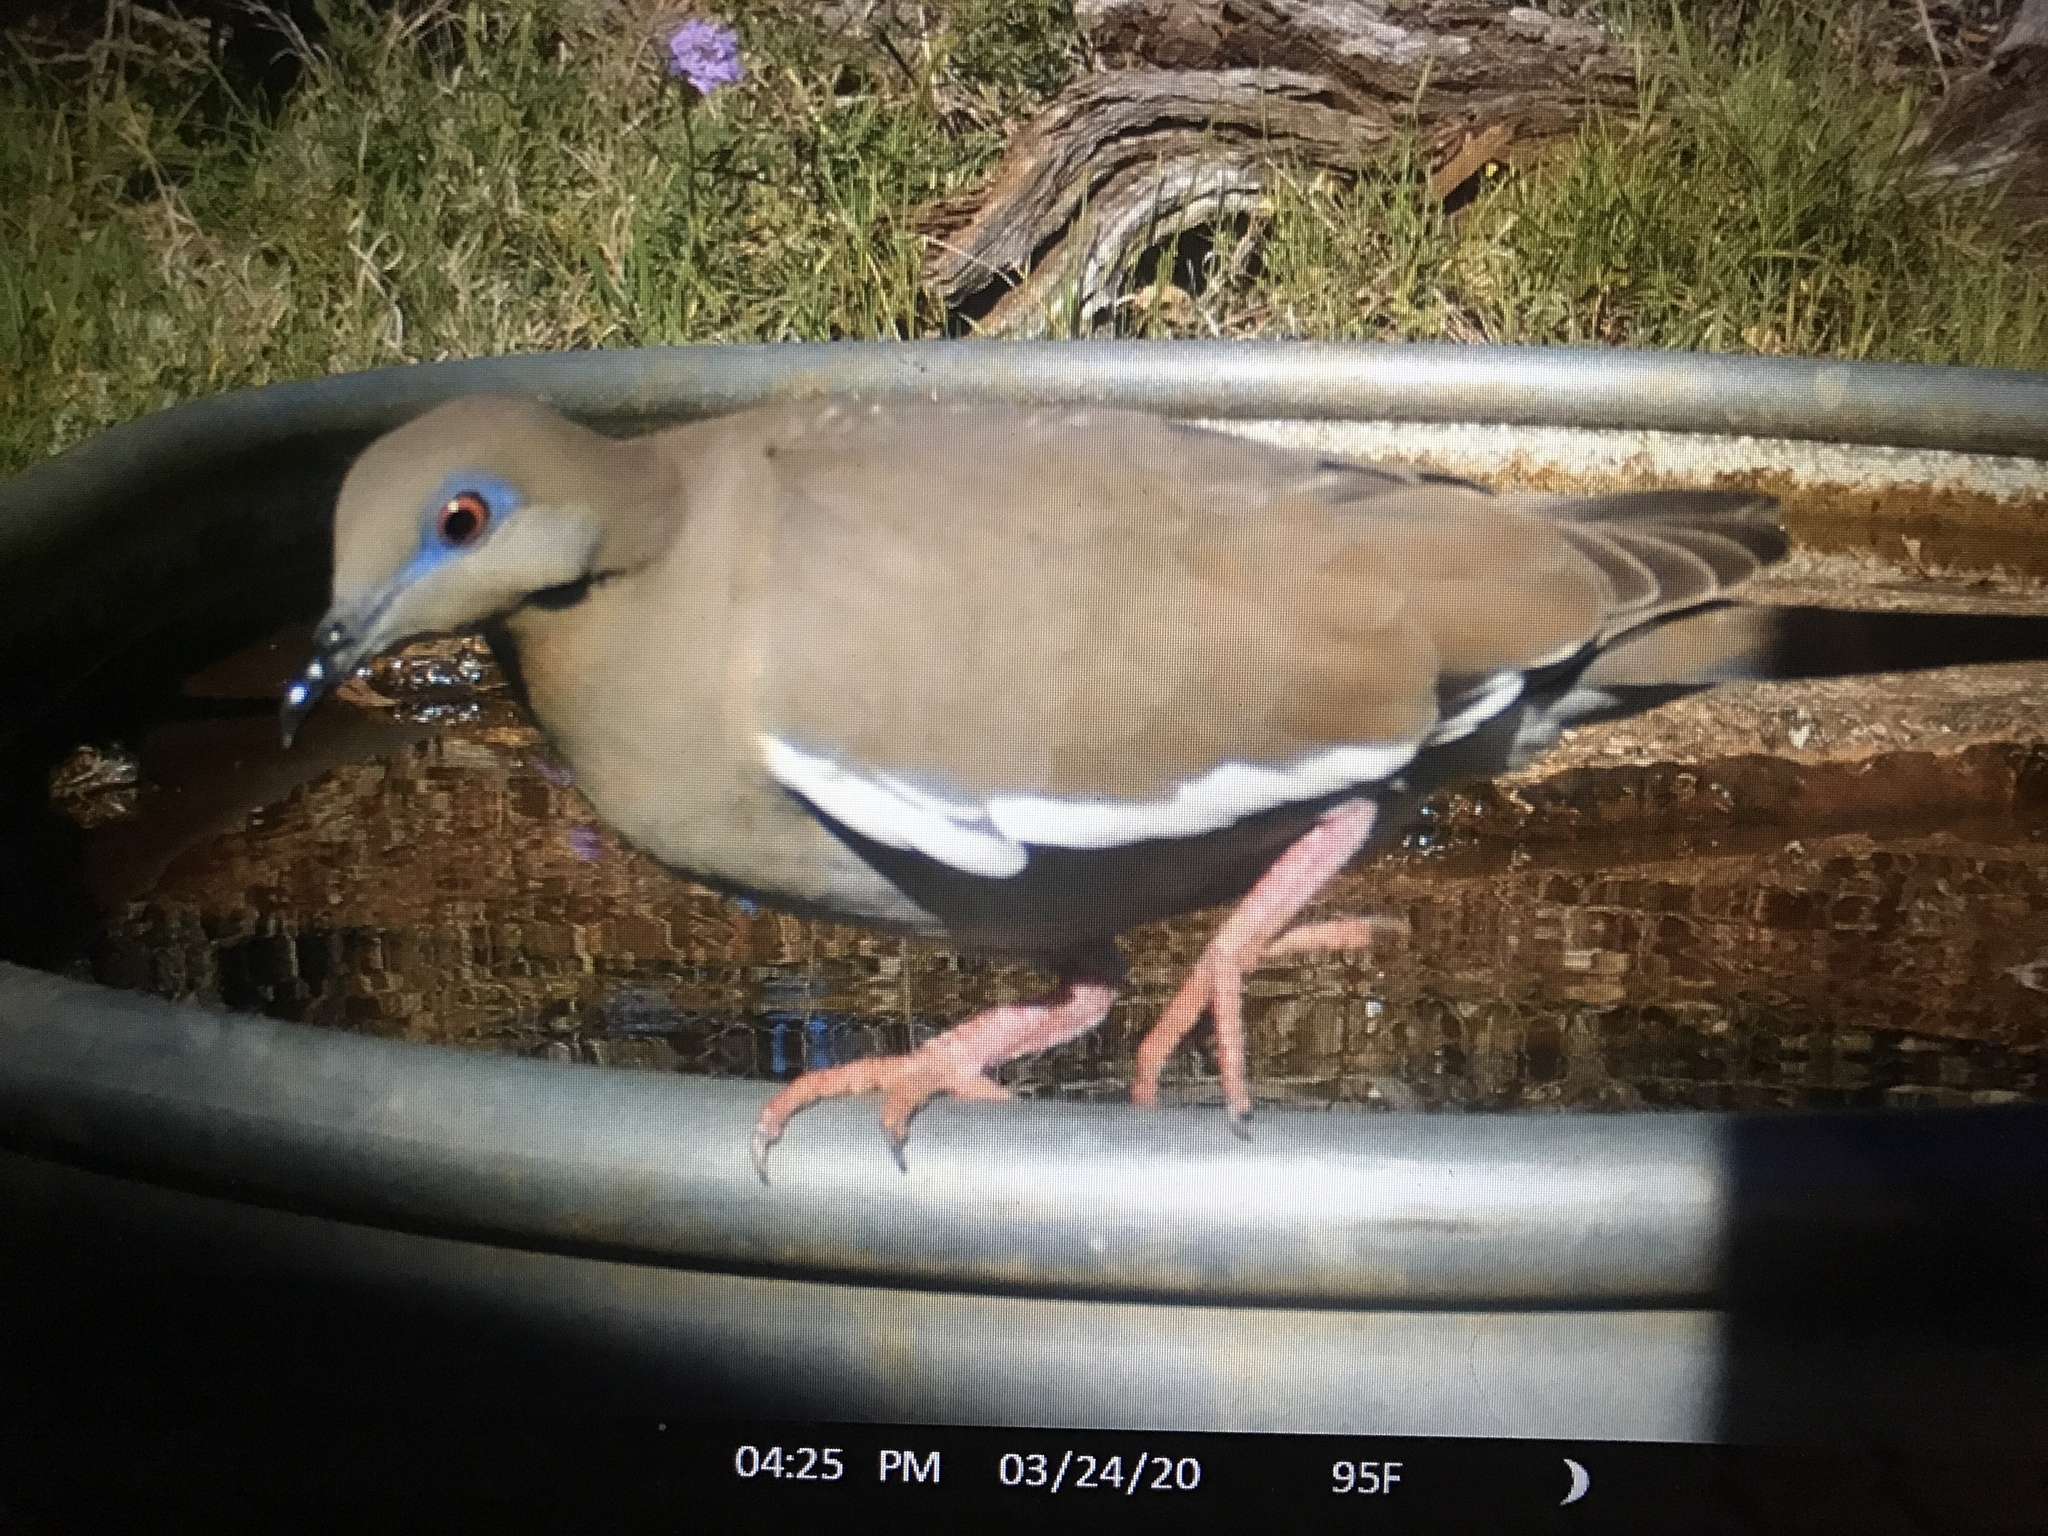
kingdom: Animalia
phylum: Chordata
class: Aves
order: Columbiformes
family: Columbidae
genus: Zenaida
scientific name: Zenaida asiatica
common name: White-winged dove
